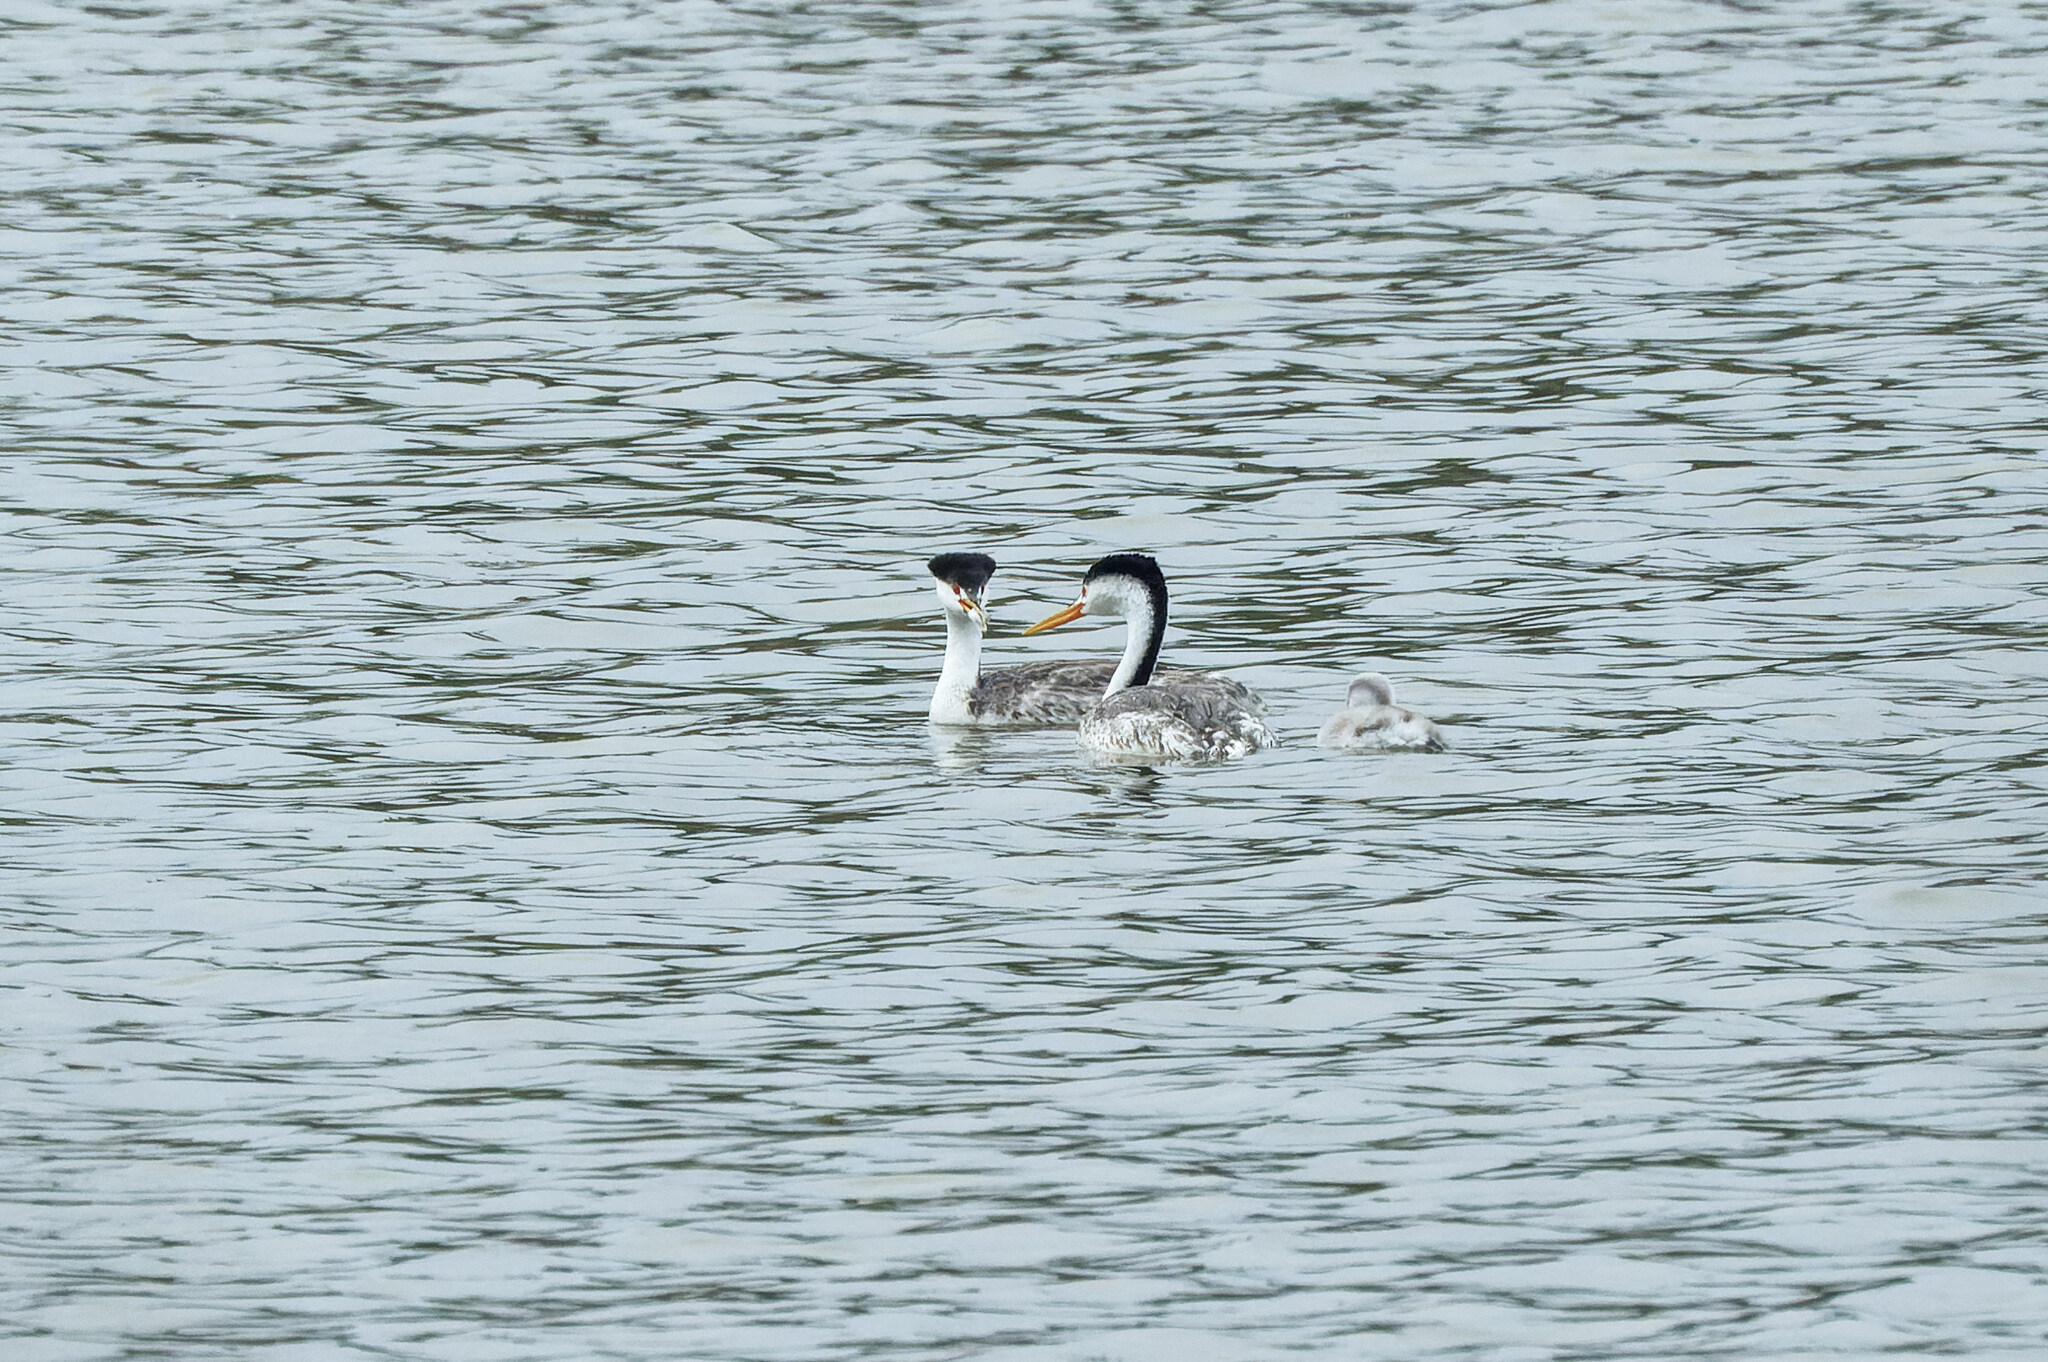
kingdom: Animalia
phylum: Chordata
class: Aves
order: Podicipediformes
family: Podicipedidae
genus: Aechmophorus
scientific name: Aechmophorus clarkii
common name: Clark's grebe
